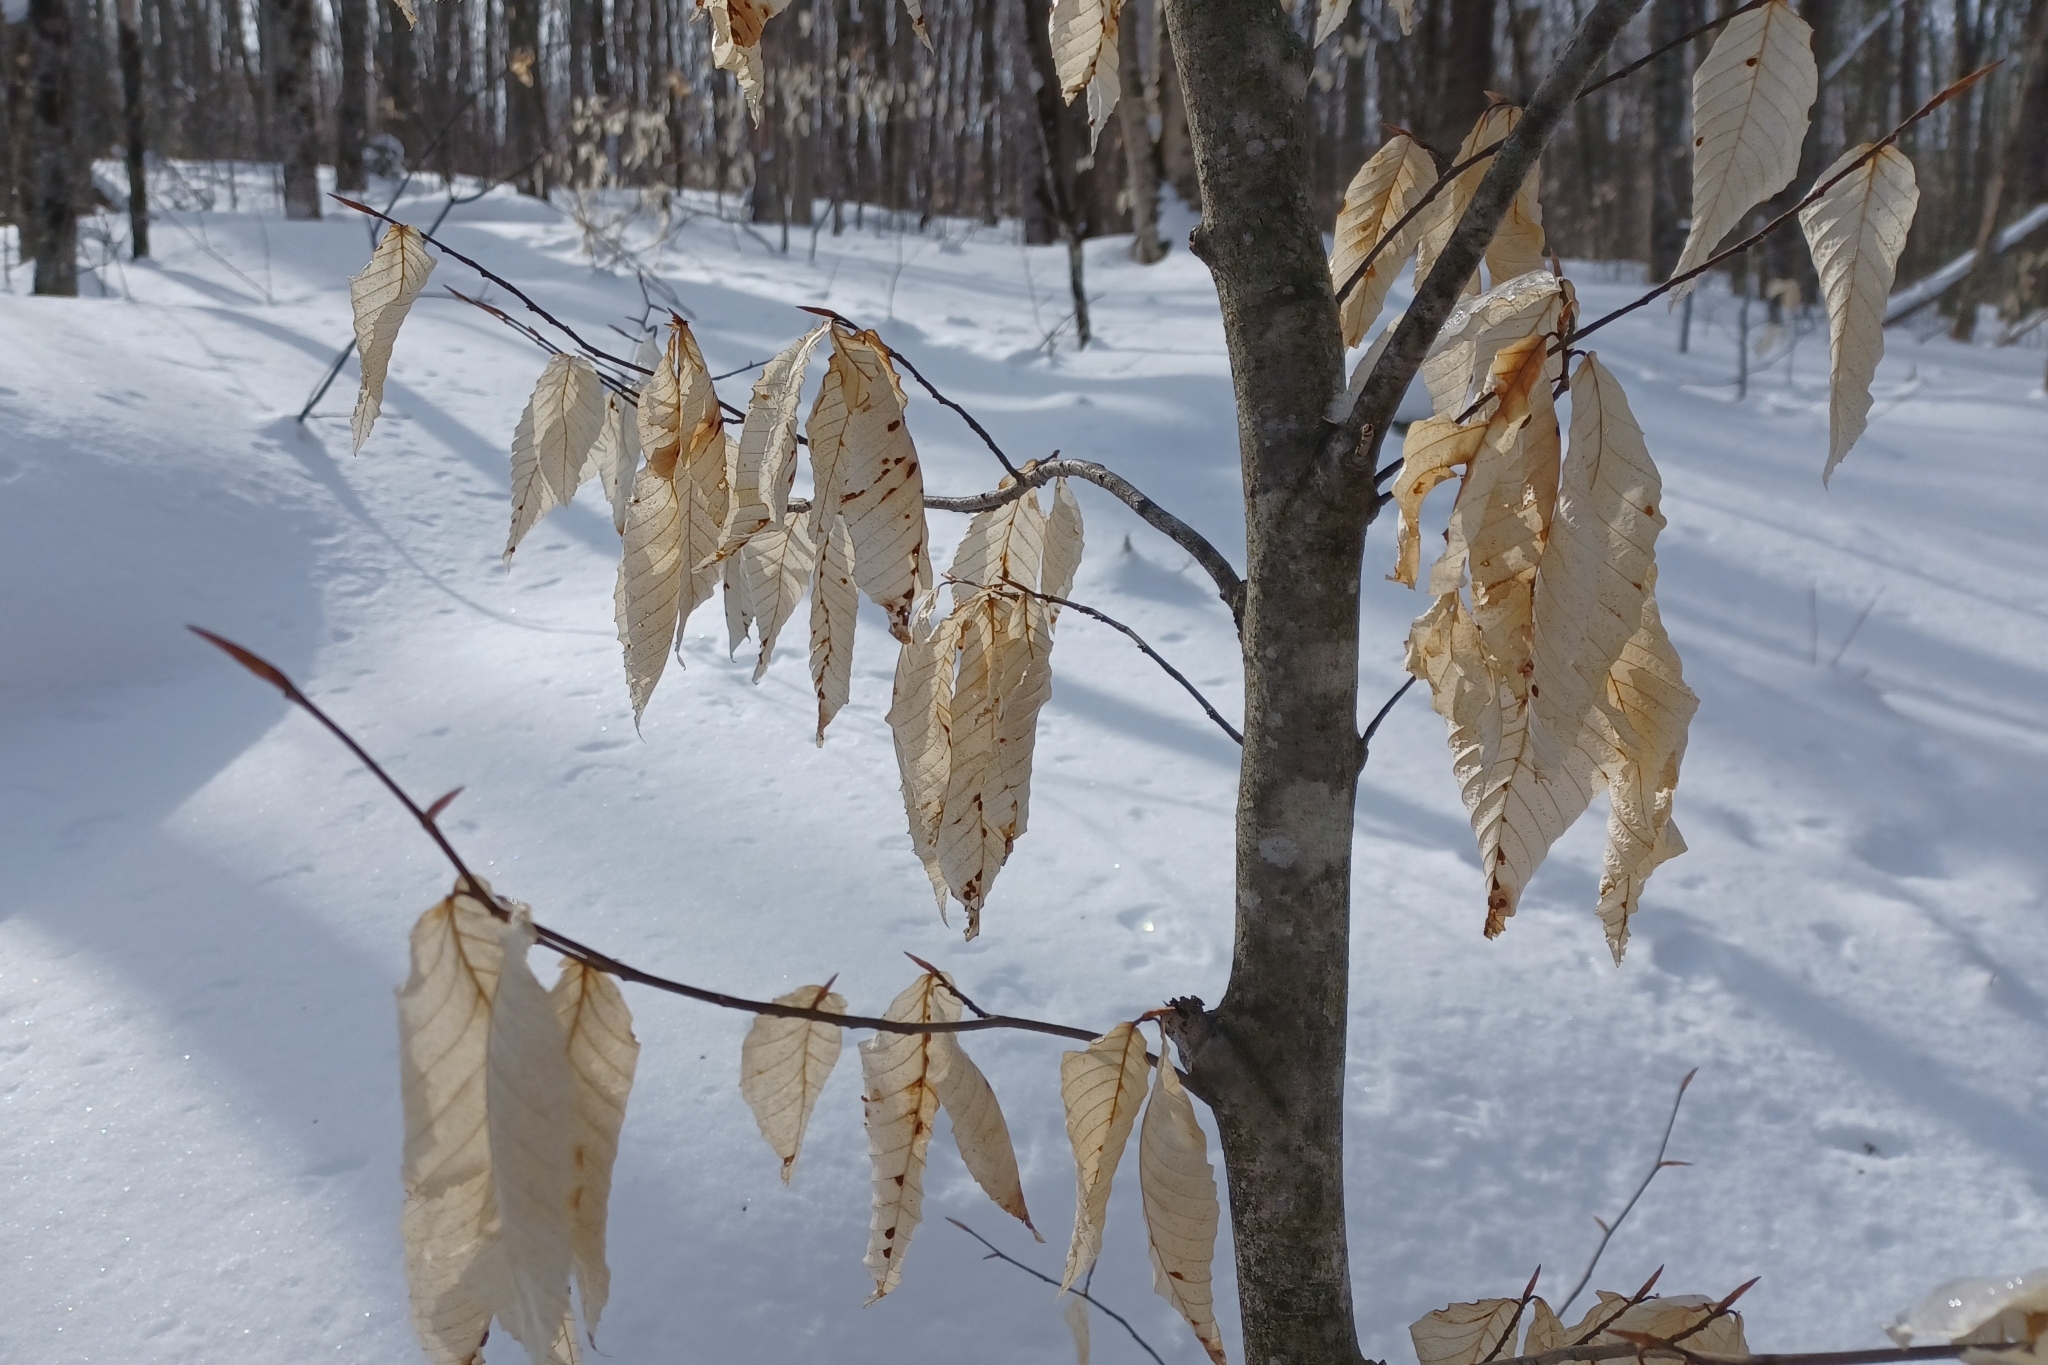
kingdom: Plantae
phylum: Tracheophyta
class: Magnoliopsida
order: Fagales
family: Fagaceae
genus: Fagus
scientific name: Fagus grandifolia
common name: American beech
